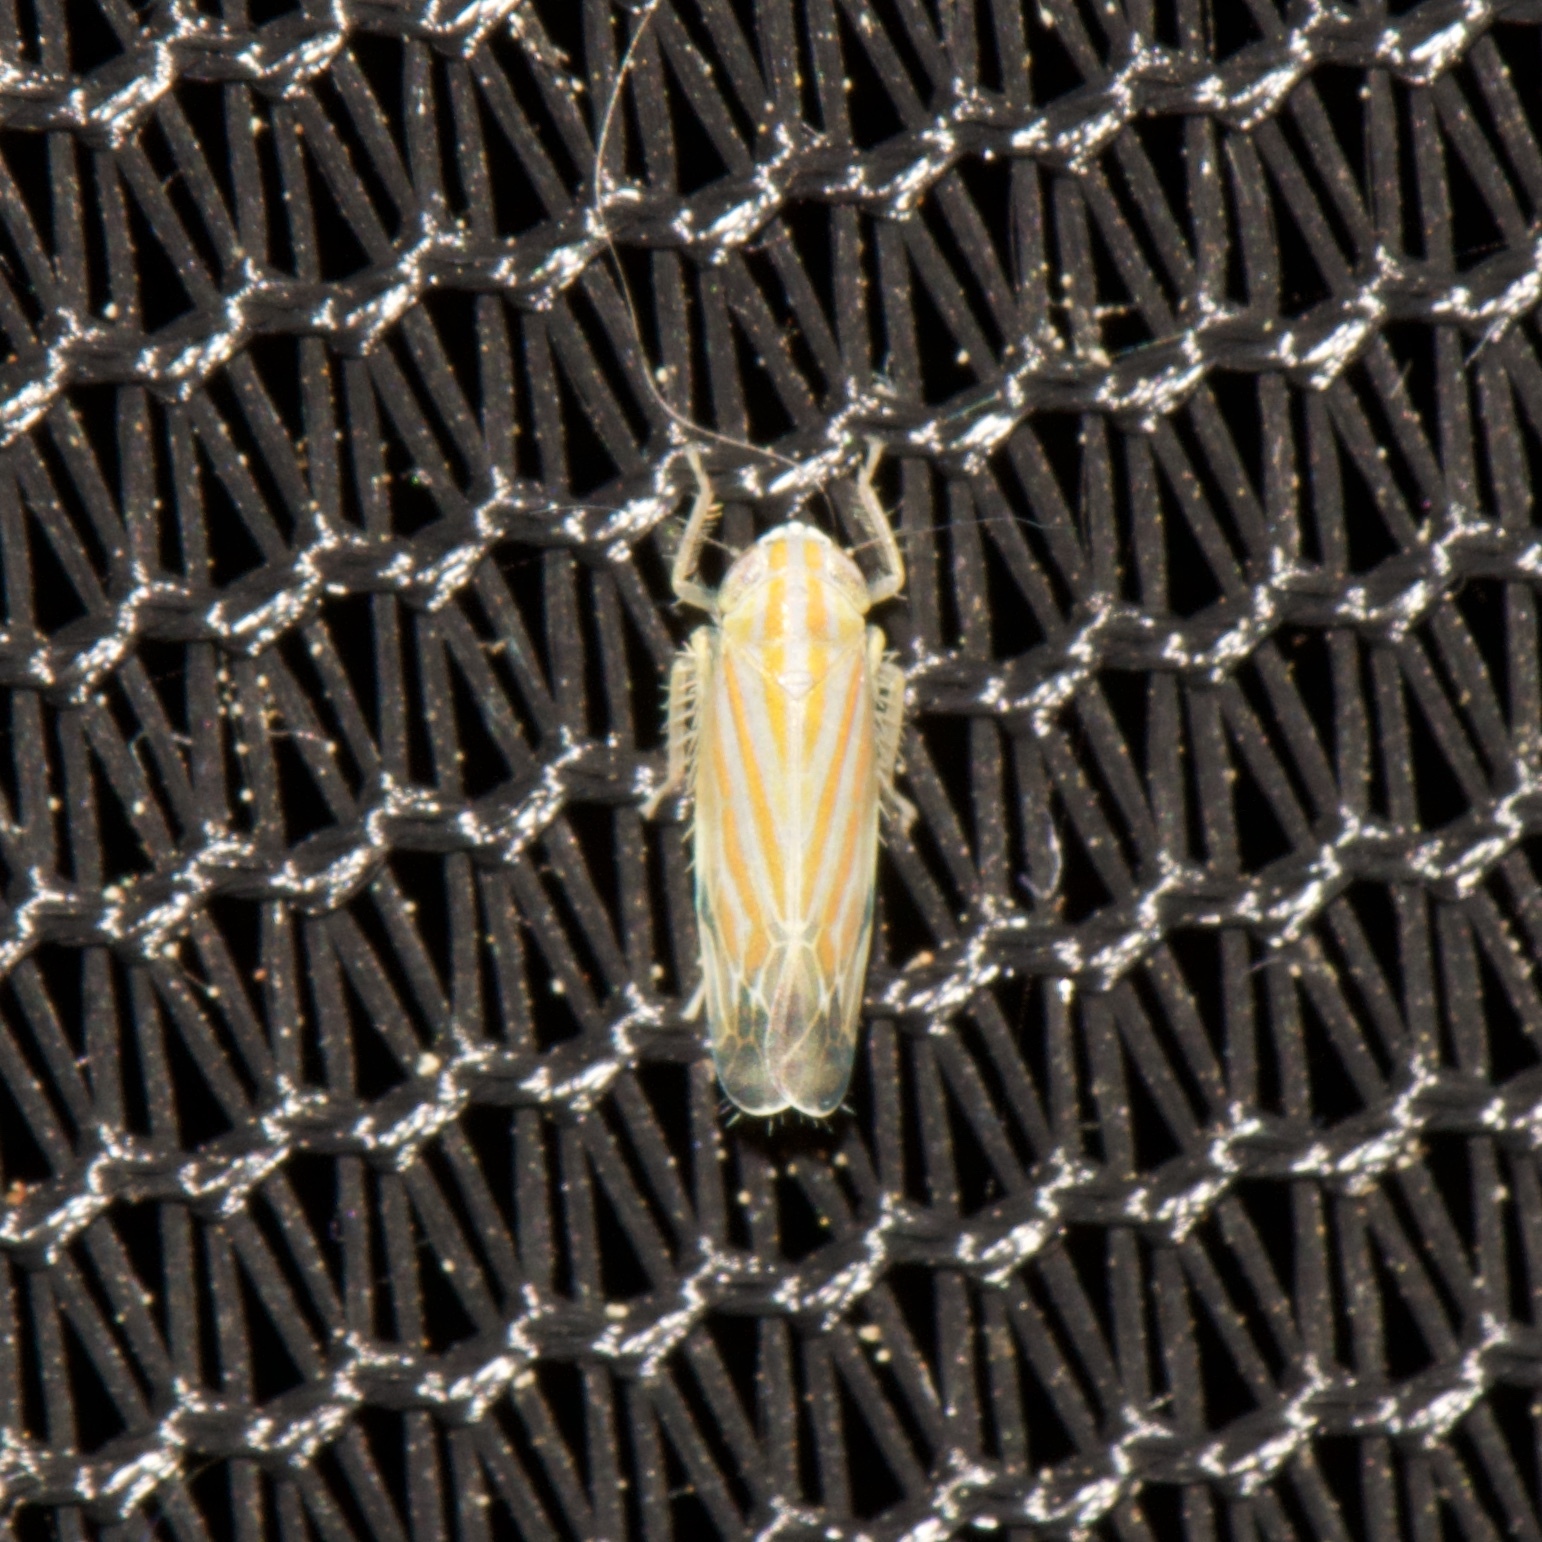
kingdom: Animalia
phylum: Arthropoda
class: Insecta
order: Hemiptera
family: Cicadellidae
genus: Deltanus
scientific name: Deltanus texanus
